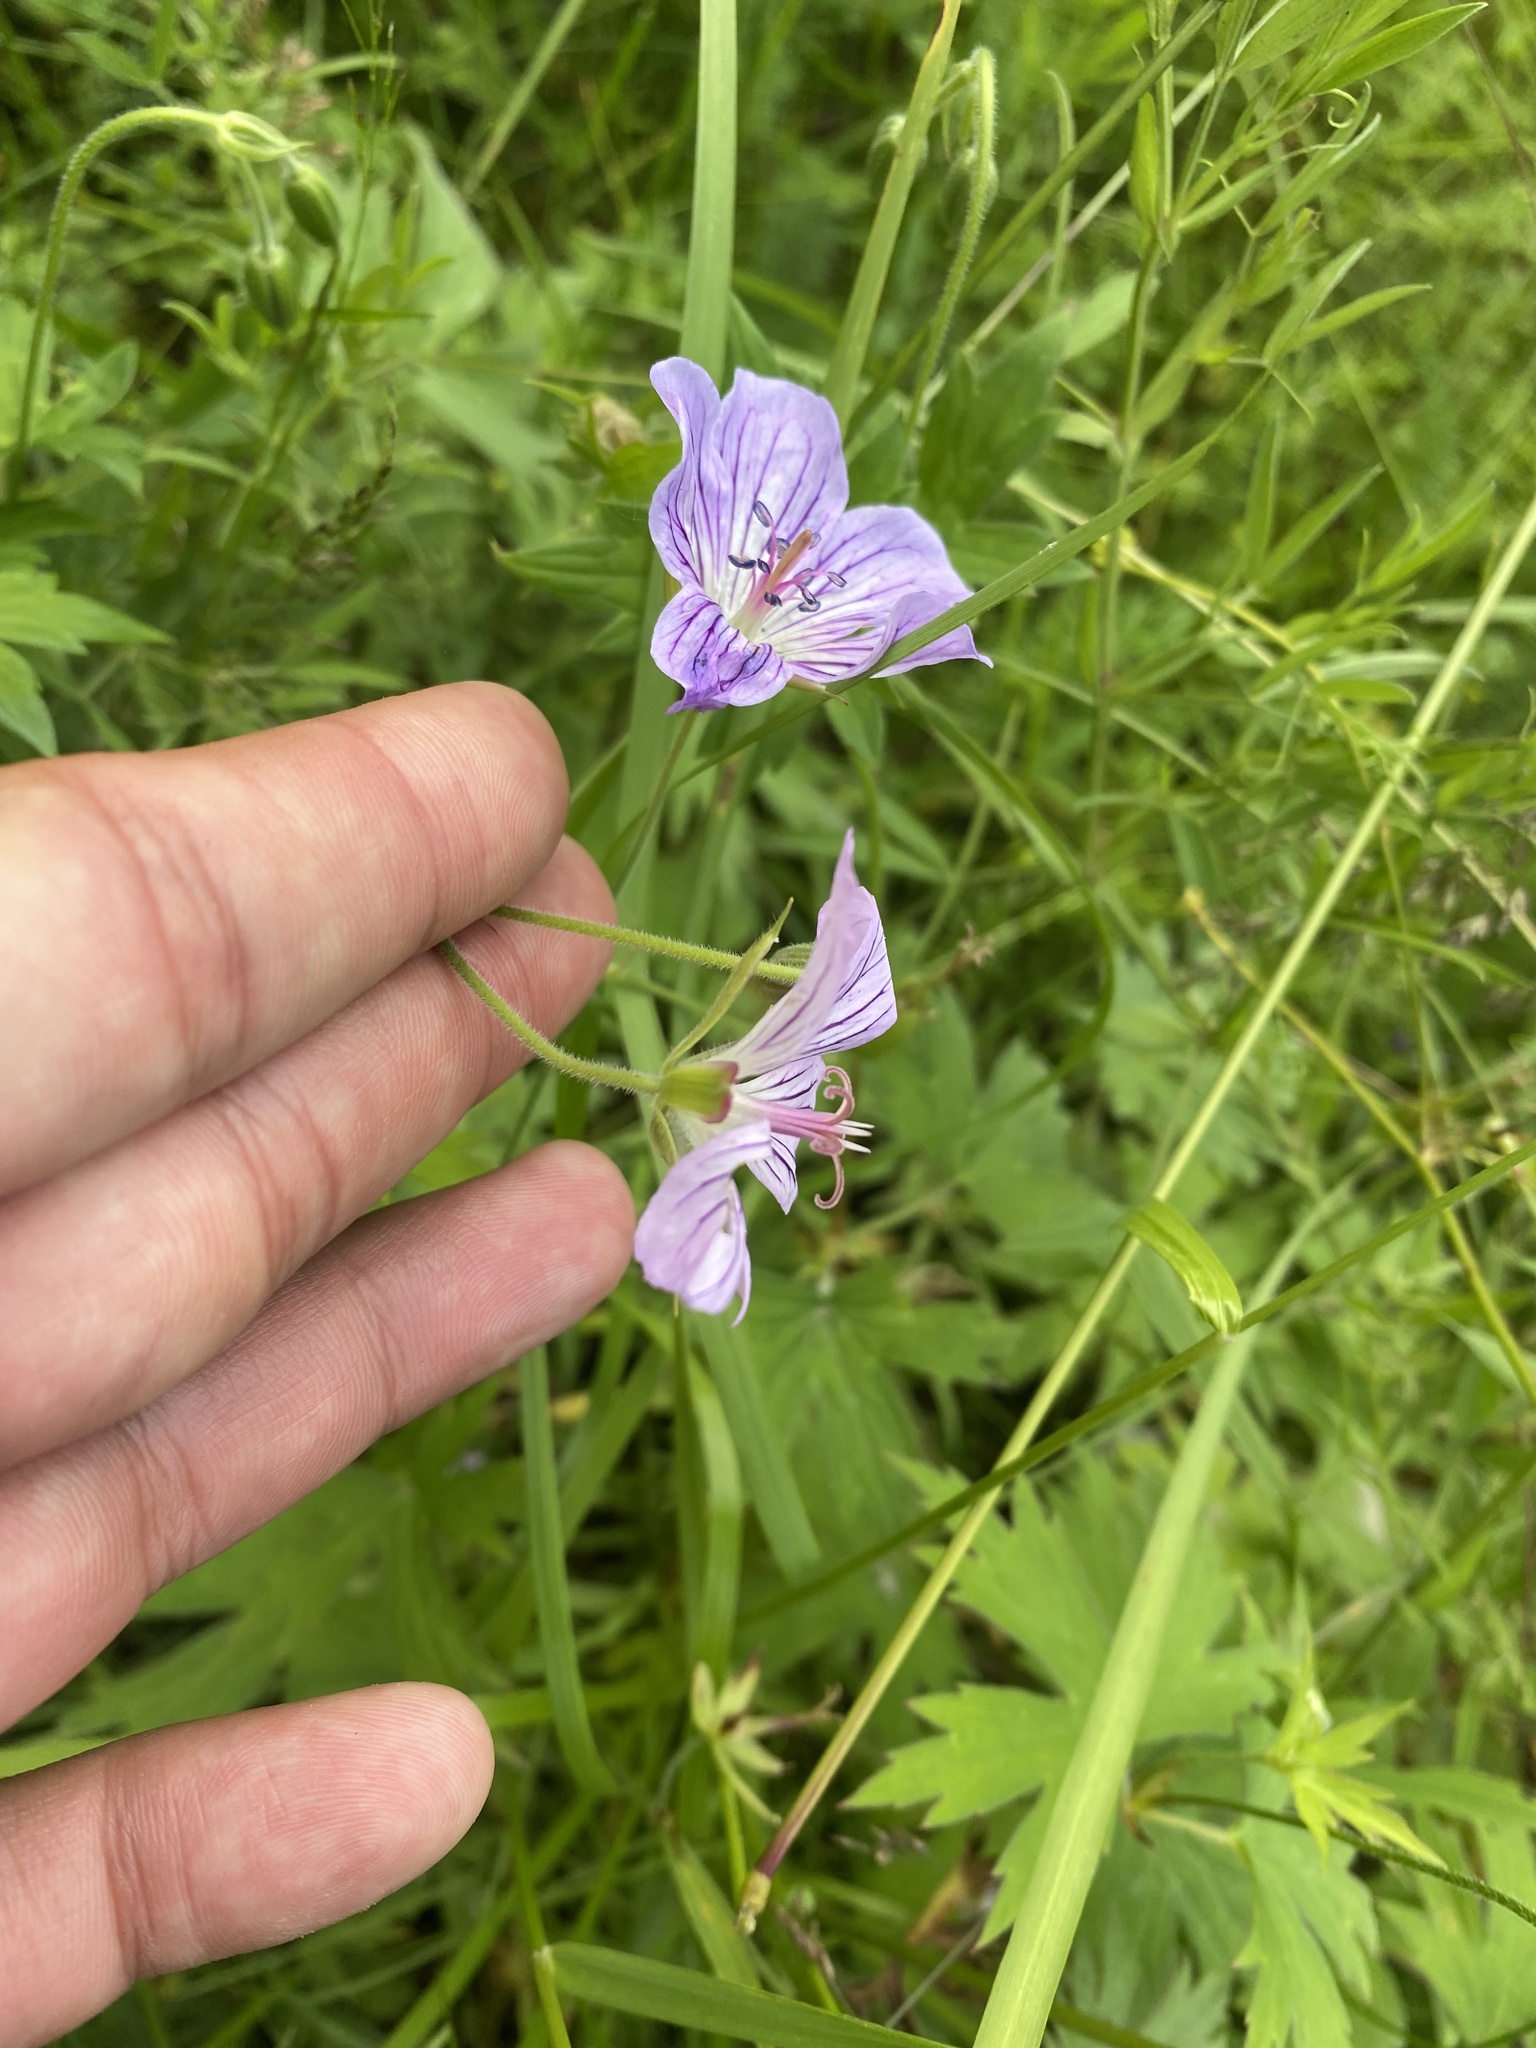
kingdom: Plantae
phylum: Tracheophyta
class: Magnoliopsida
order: Geraniales
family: Geraniaceae
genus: Geranium
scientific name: Geranium wlassovianum
